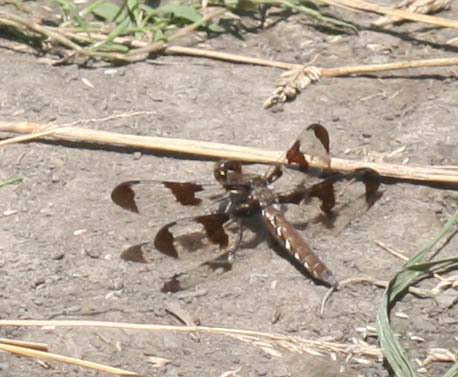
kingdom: Animalia
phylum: Arthropoda
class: Insecta
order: Odonata
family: Libellulidae
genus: Plathemis
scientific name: Plathemis lydia
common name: Common whitetail
